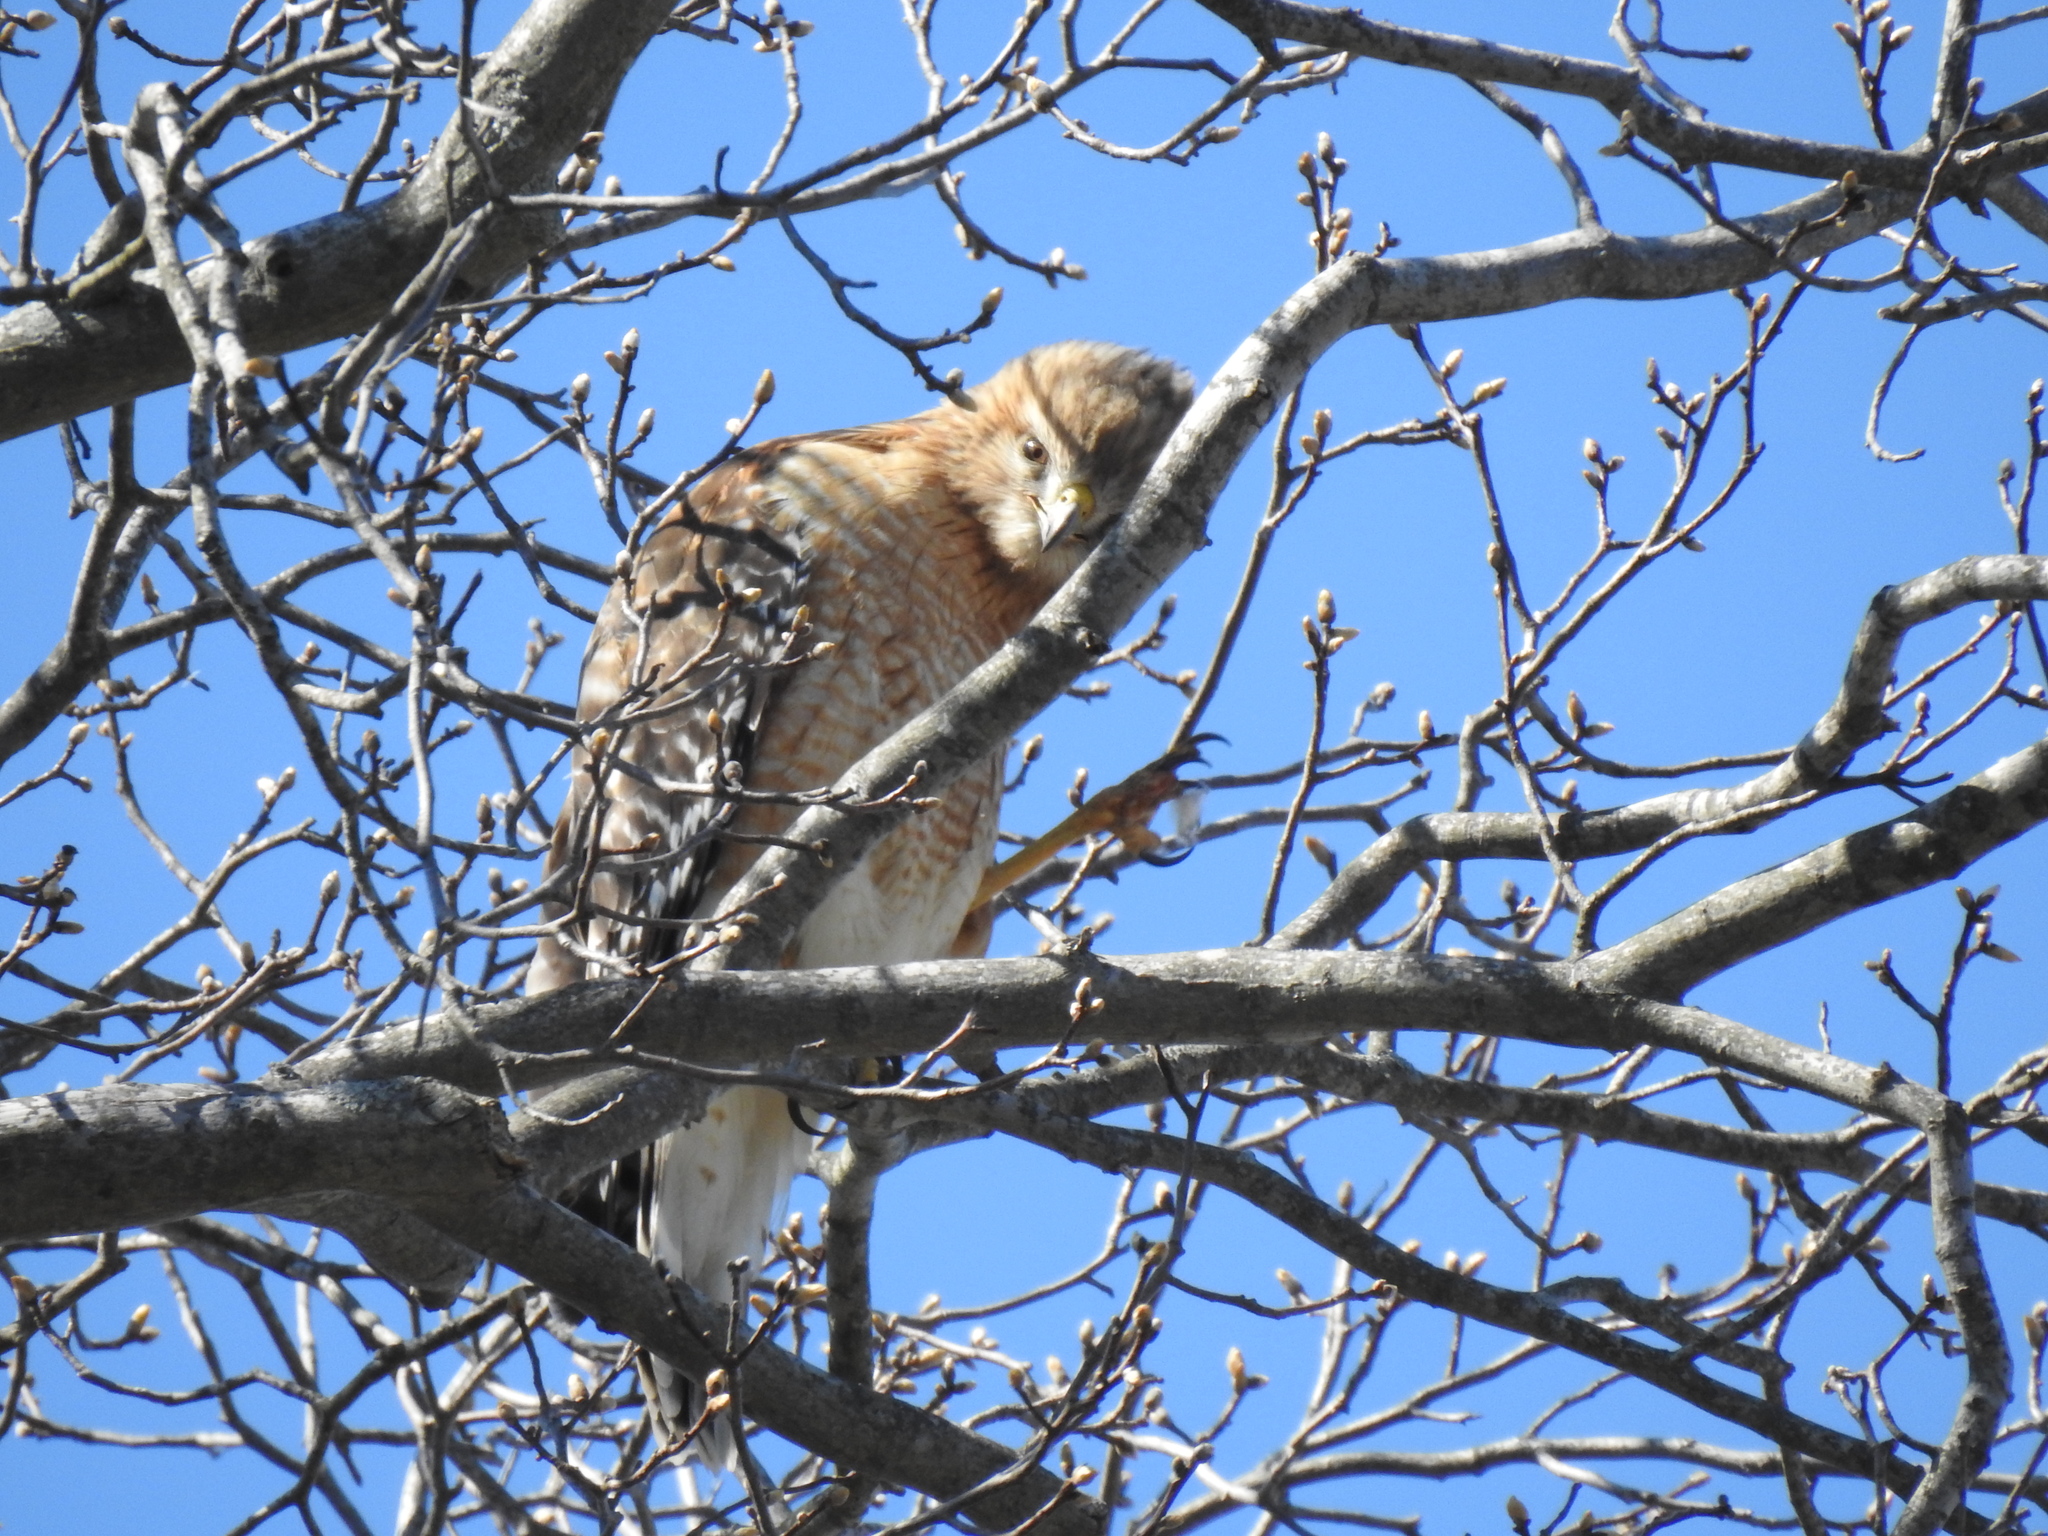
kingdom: Animalia
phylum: Chordata
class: Aves
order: Accipitriformes
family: Accipitridae
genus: Buteo
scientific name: Buteo lineatus
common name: Red-shouldered hawk
